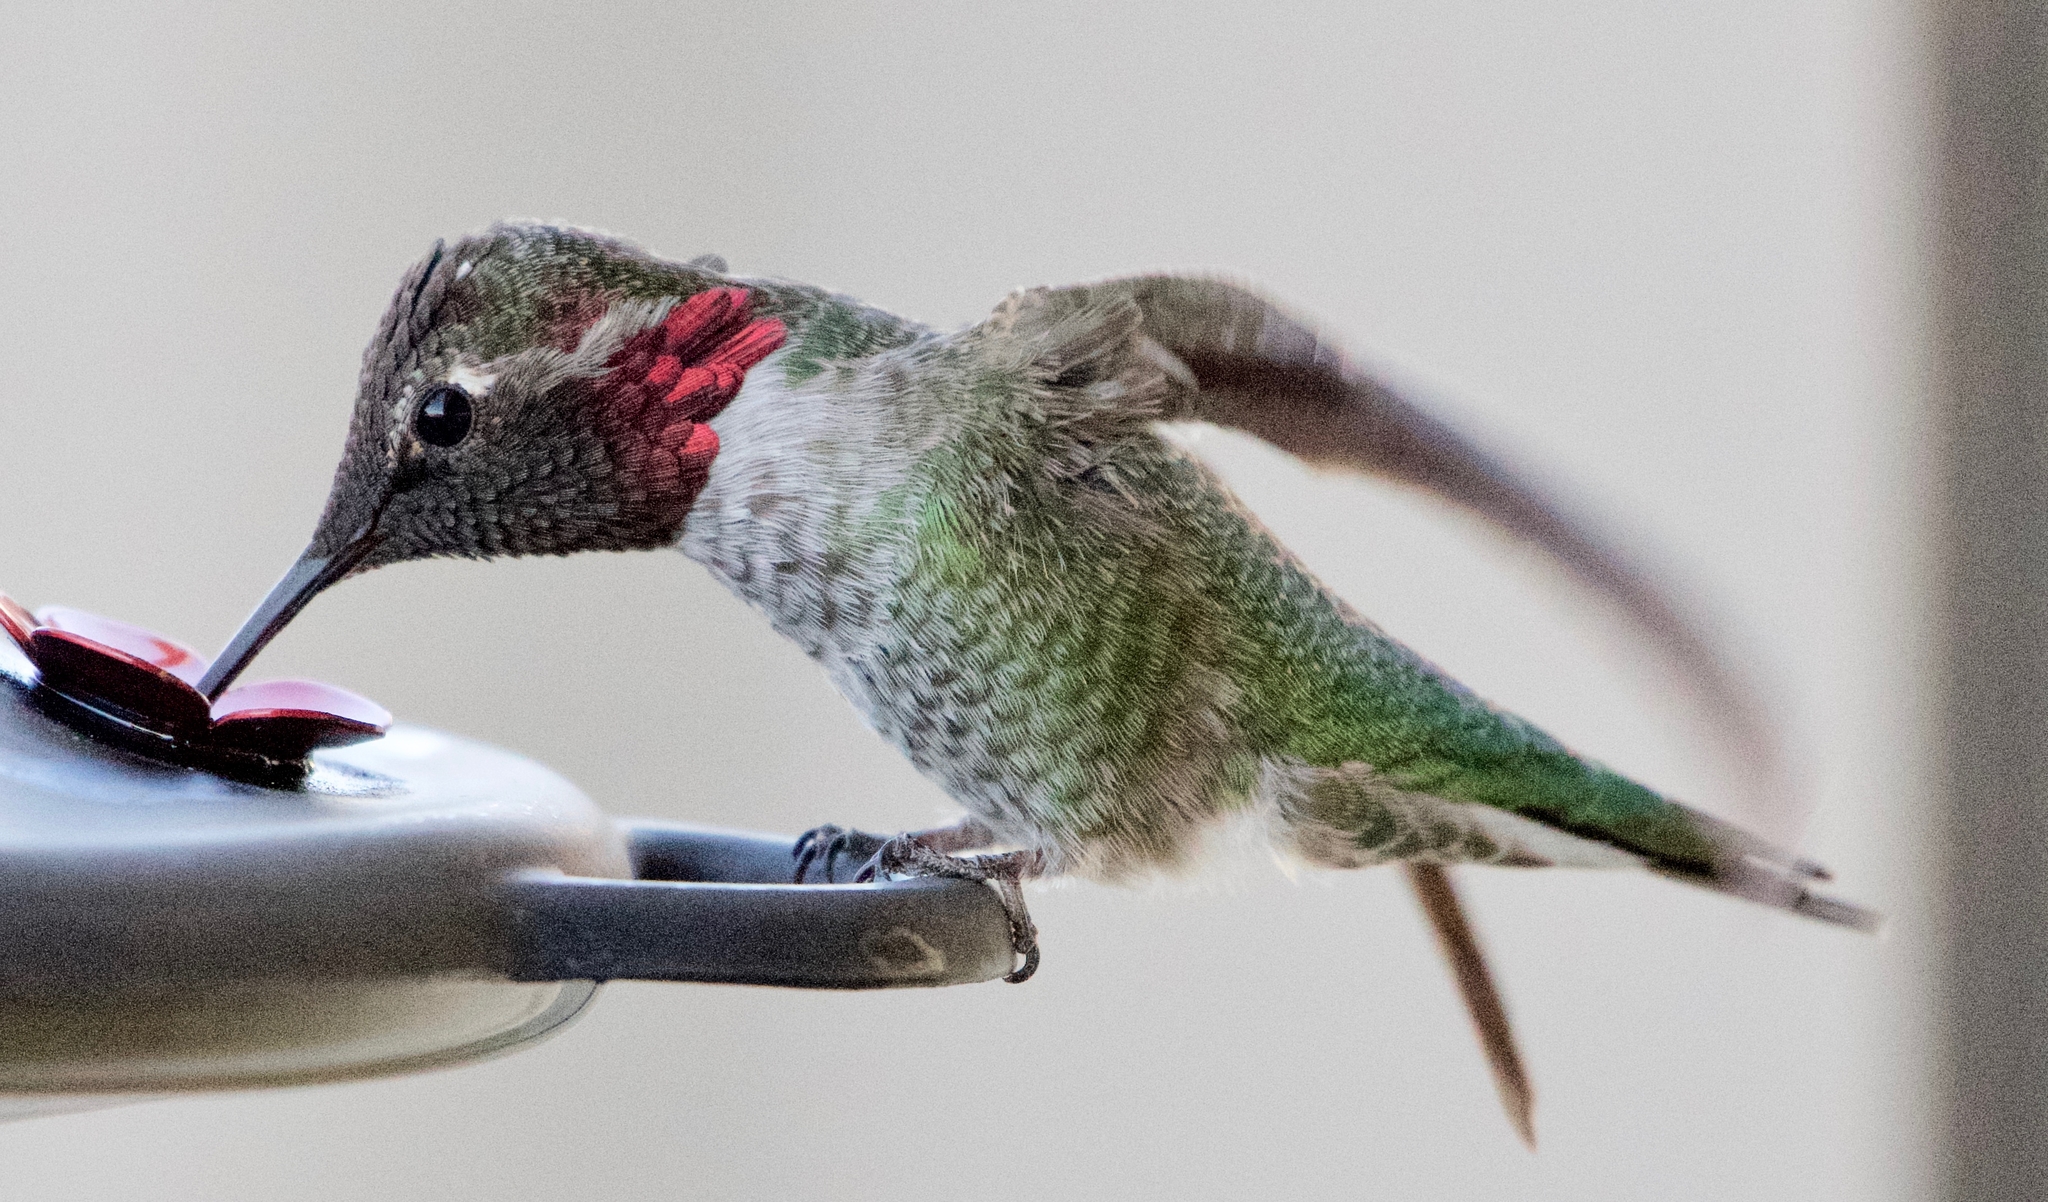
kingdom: Animalia
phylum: Chordata
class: Aves
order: Apodiformes
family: Trochilidae
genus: Calypte
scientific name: Calypte anna
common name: Anna's hummingbird
